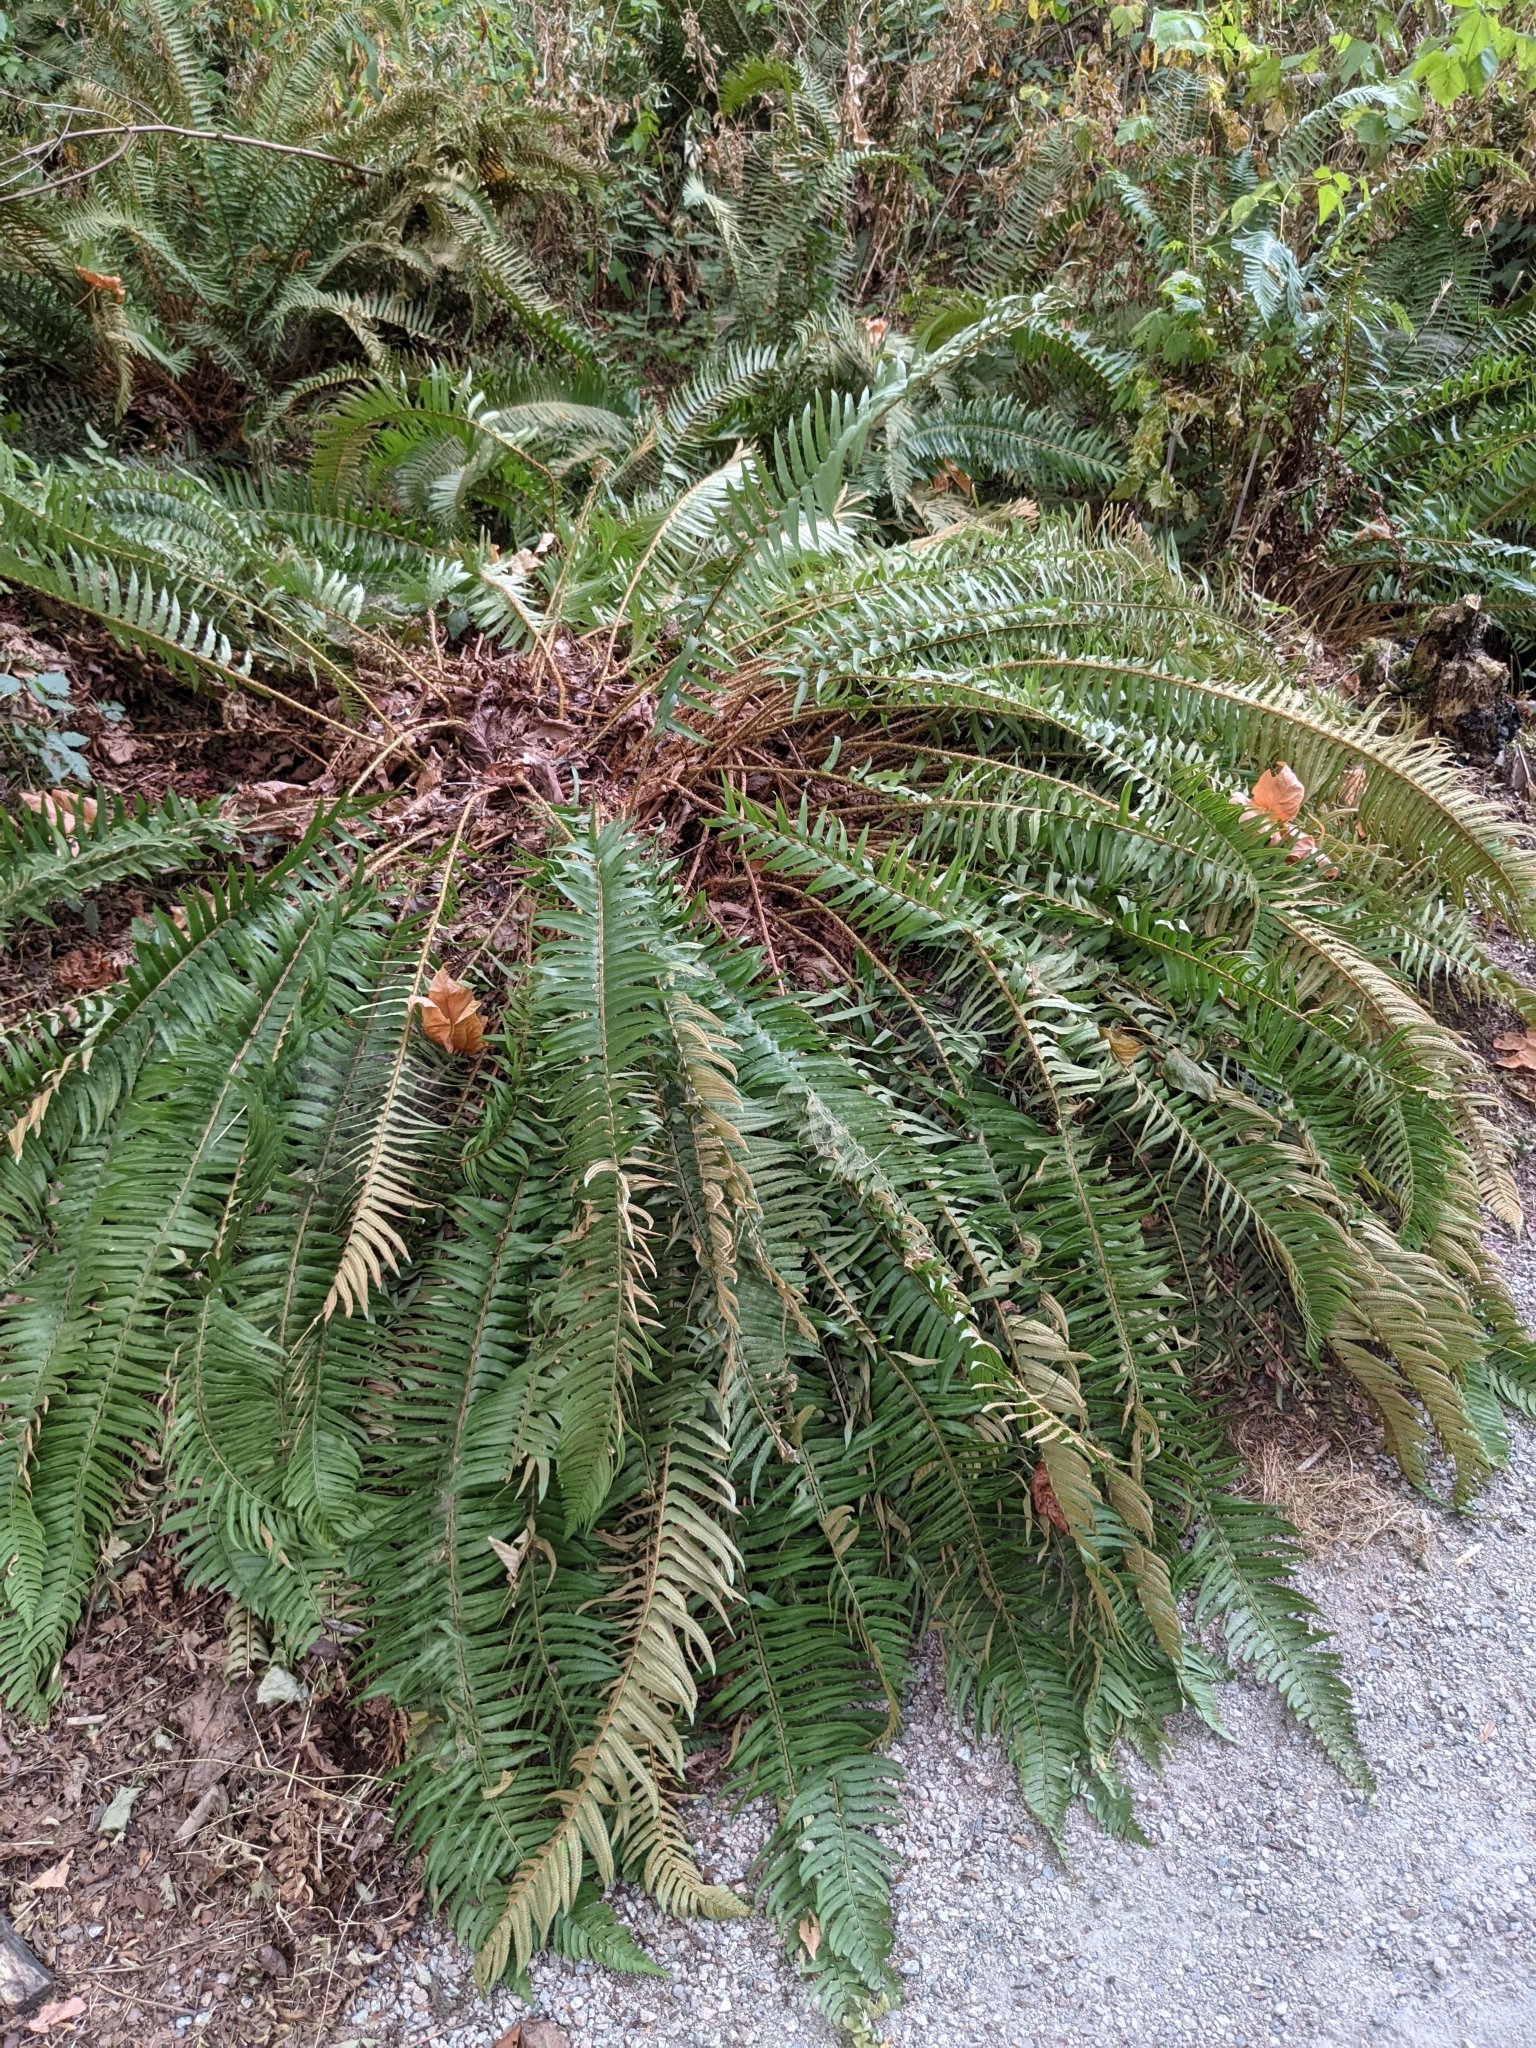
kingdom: Plantae
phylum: Tracheophyta
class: Polypodiopsida
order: Polypodiales
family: Dryopteridaceae
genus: Polystichum
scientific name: Polystichum munitum
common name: Western sword-fern
